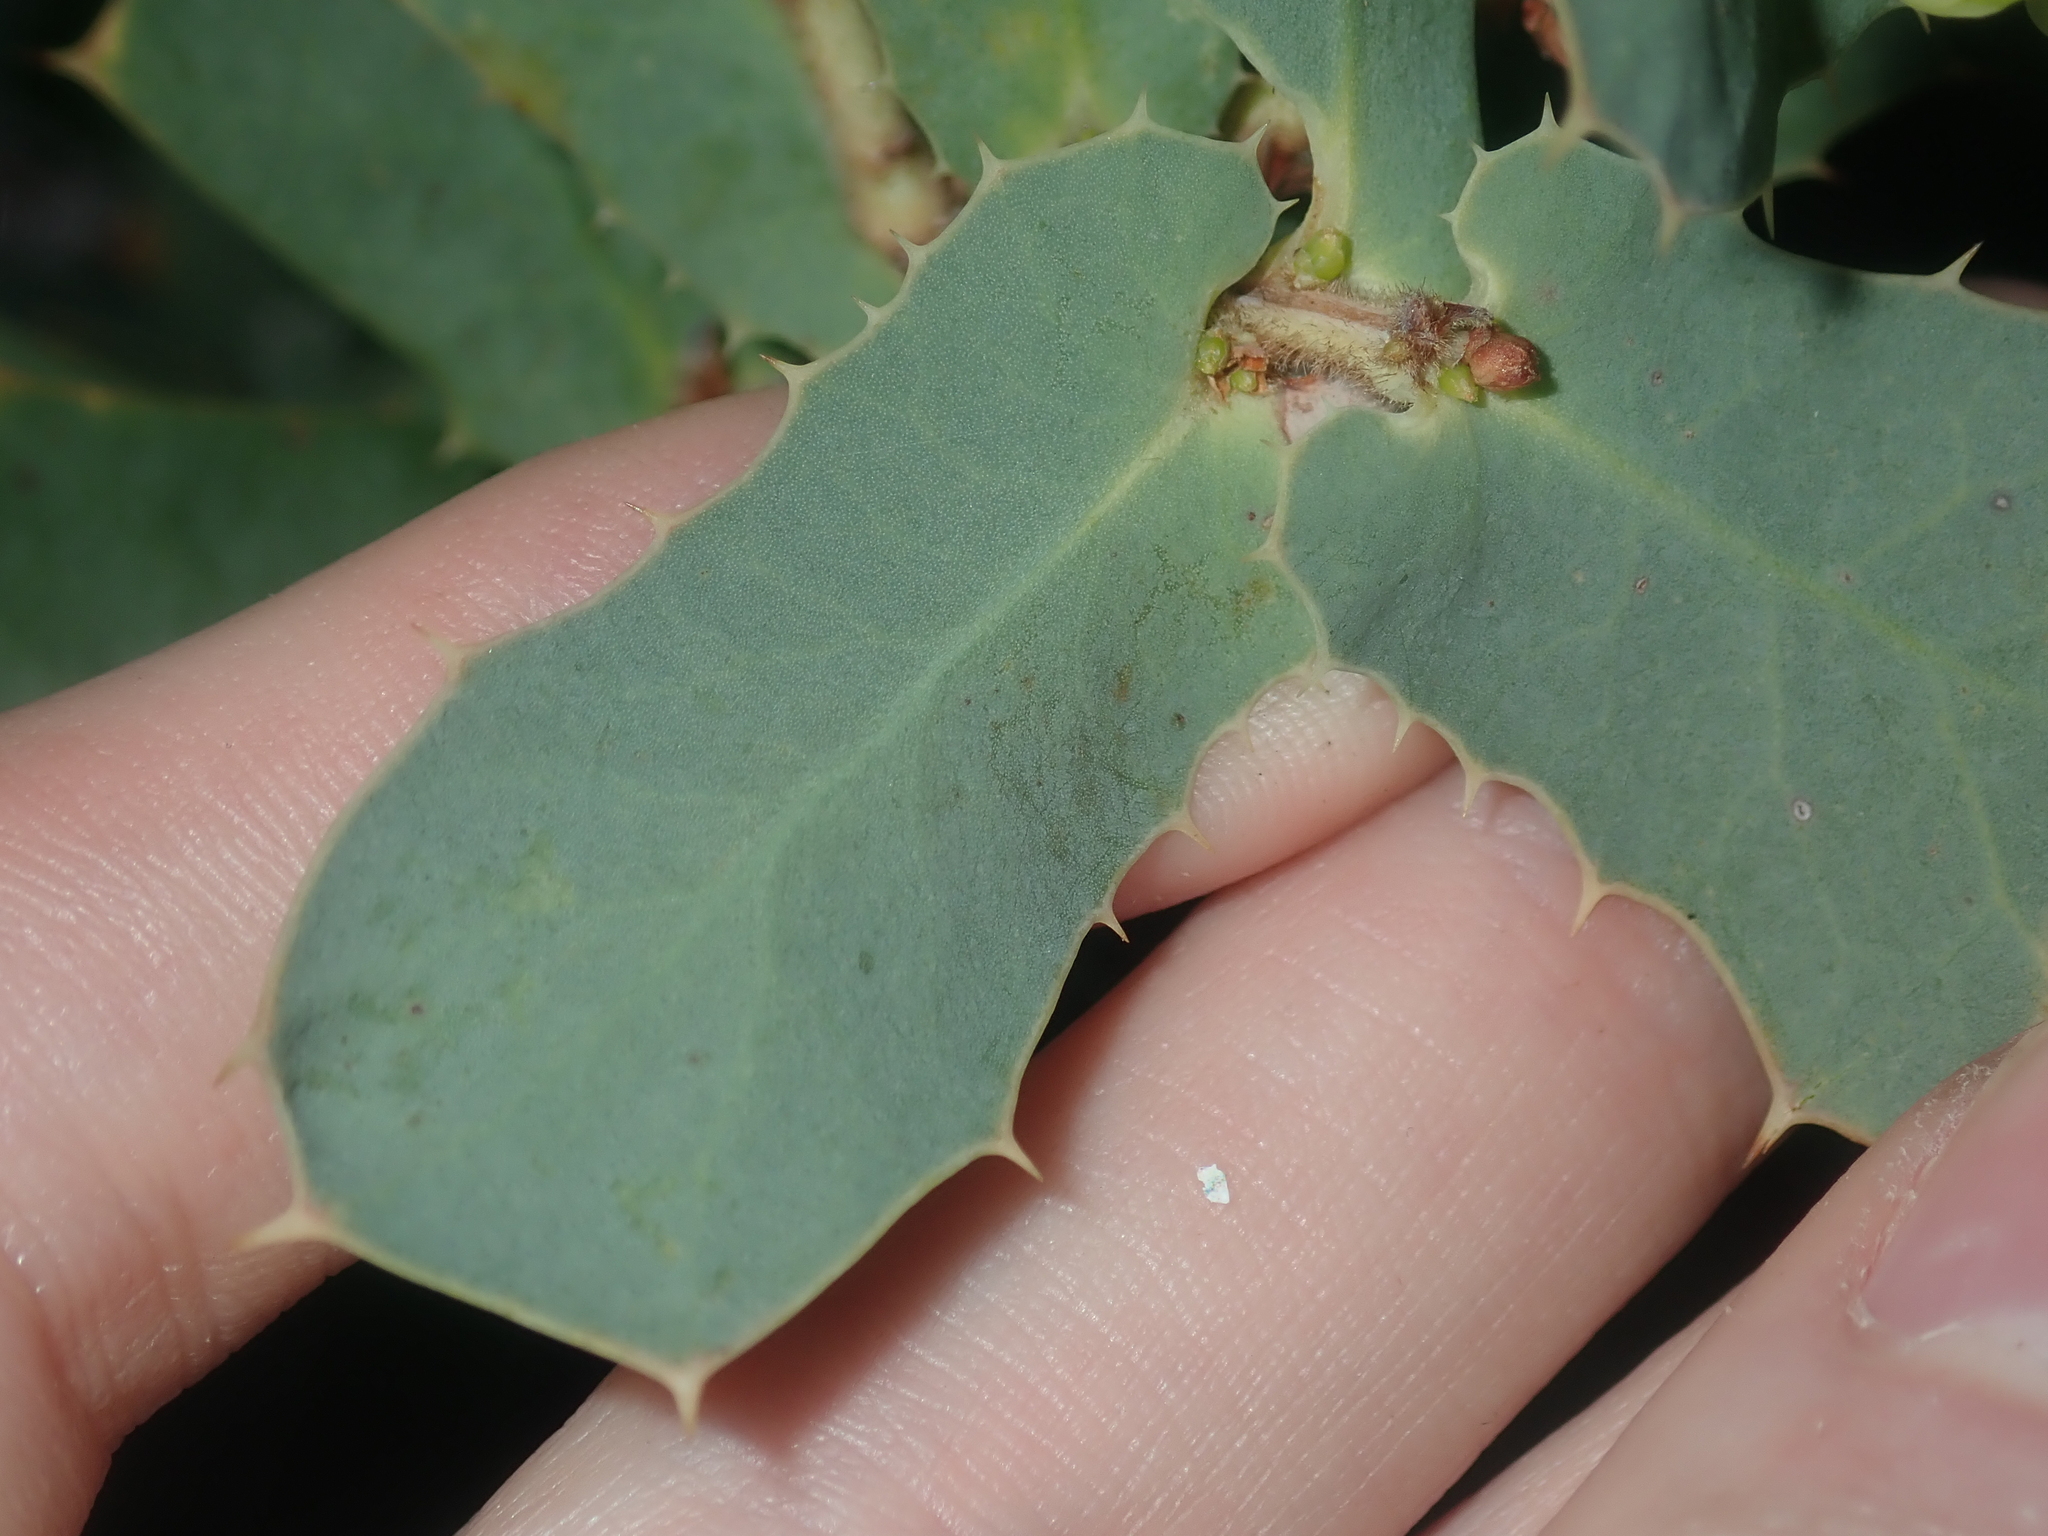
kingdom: Plantae
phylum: Tracheophyta
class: Magnoliopsida
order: Proteales
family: Proteaceae
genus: Hakea
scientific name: Hakea prostrata
